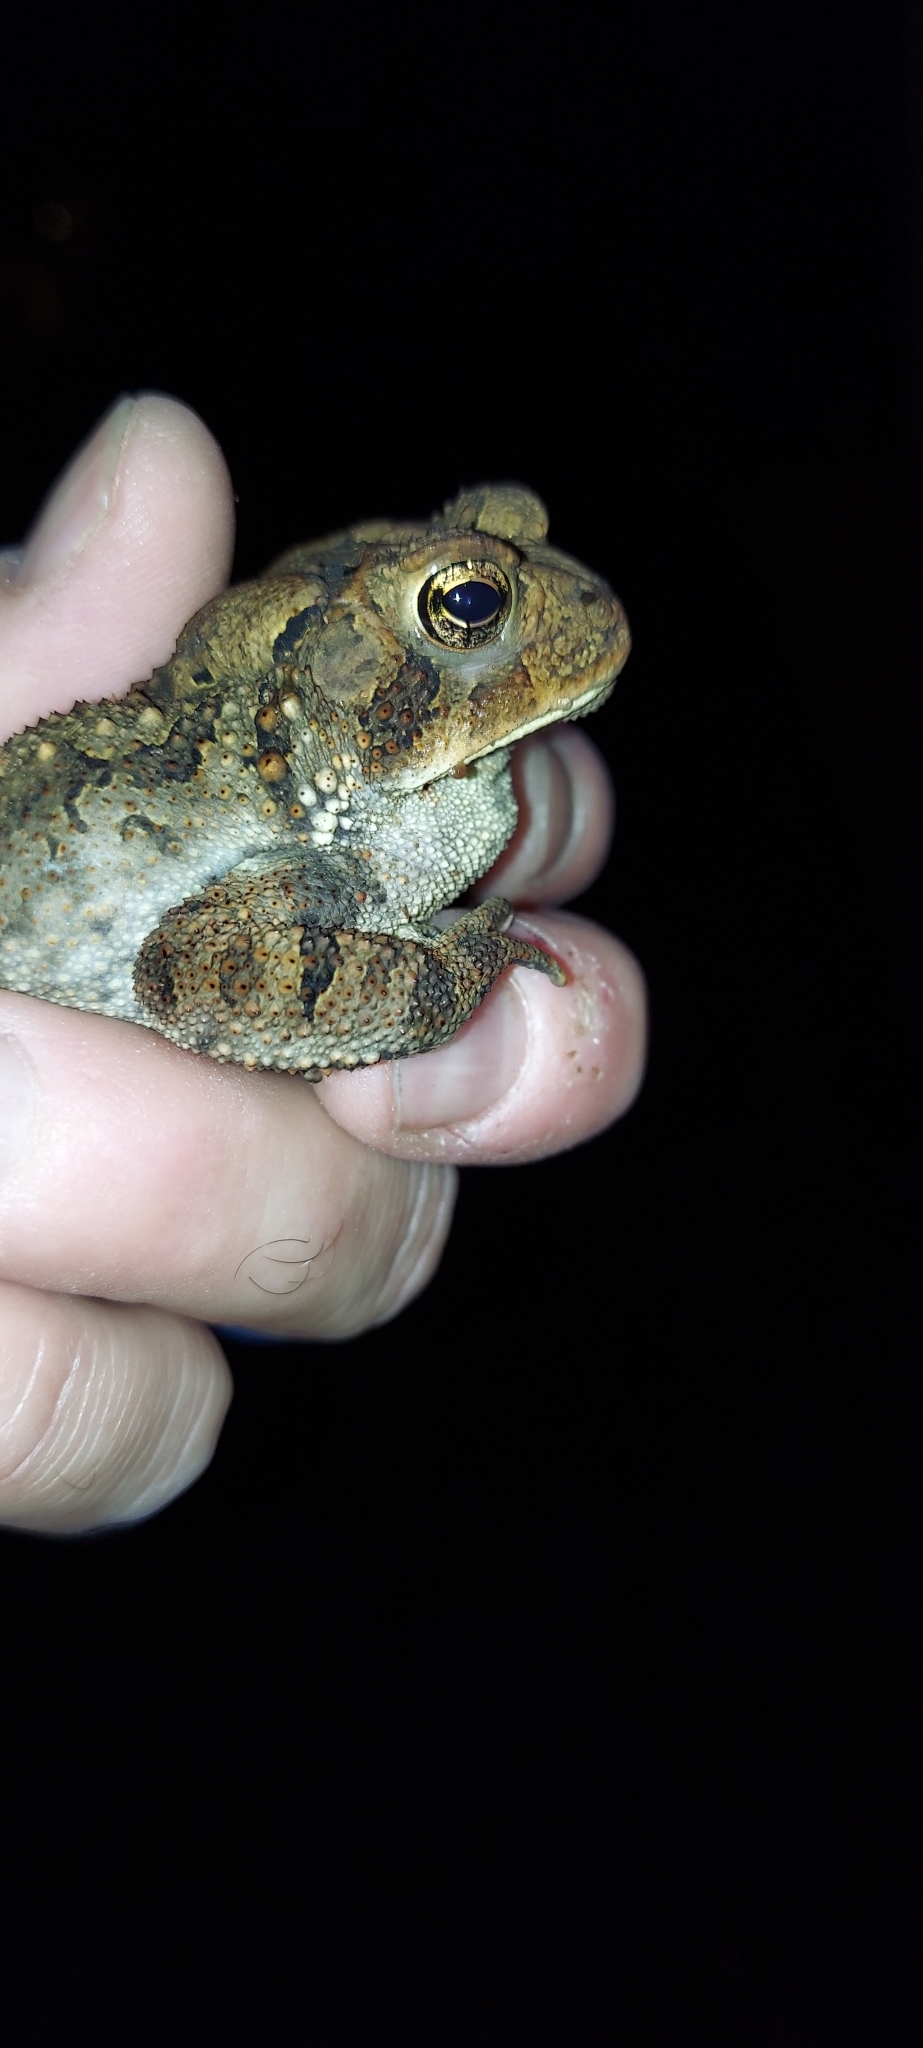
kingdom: Animalia
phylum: Chordata
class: Amphibia
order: Anura
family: Bufonidae
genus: Anaxyrus
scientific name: Anaxyrus americanus
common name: American toad
